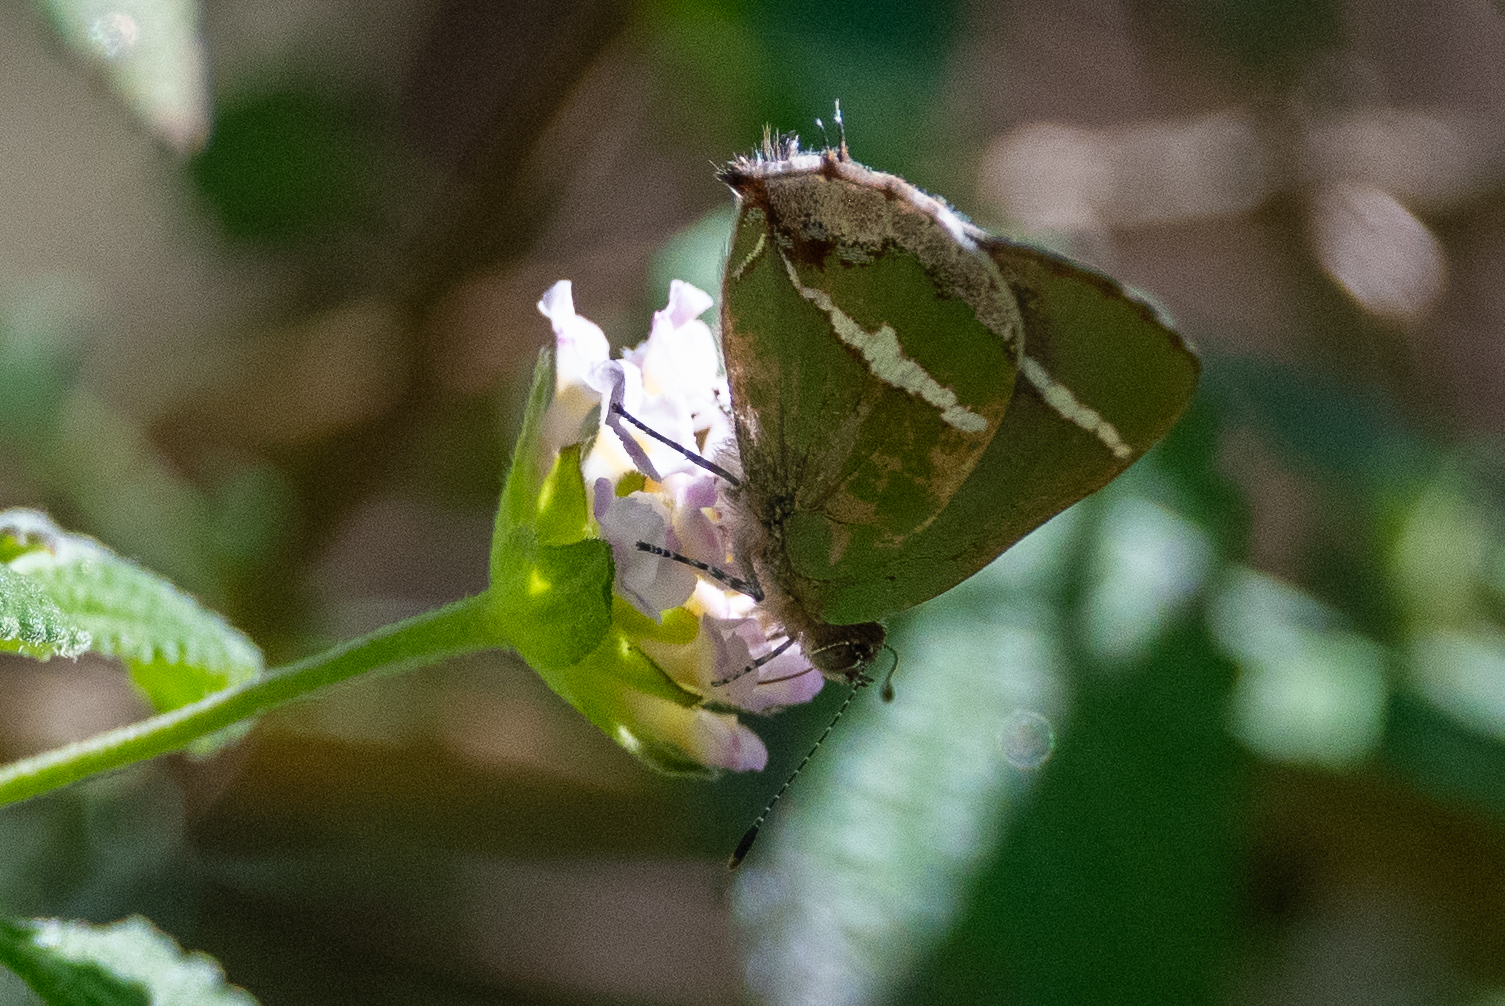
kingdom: Animalia
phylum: Arthropoda
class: Insecta
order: Lepidoptera
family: Lycaenidae
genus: Chlorostrymon
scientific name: Chlorostrymon simaethis
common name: Silver-banded hairstreak
